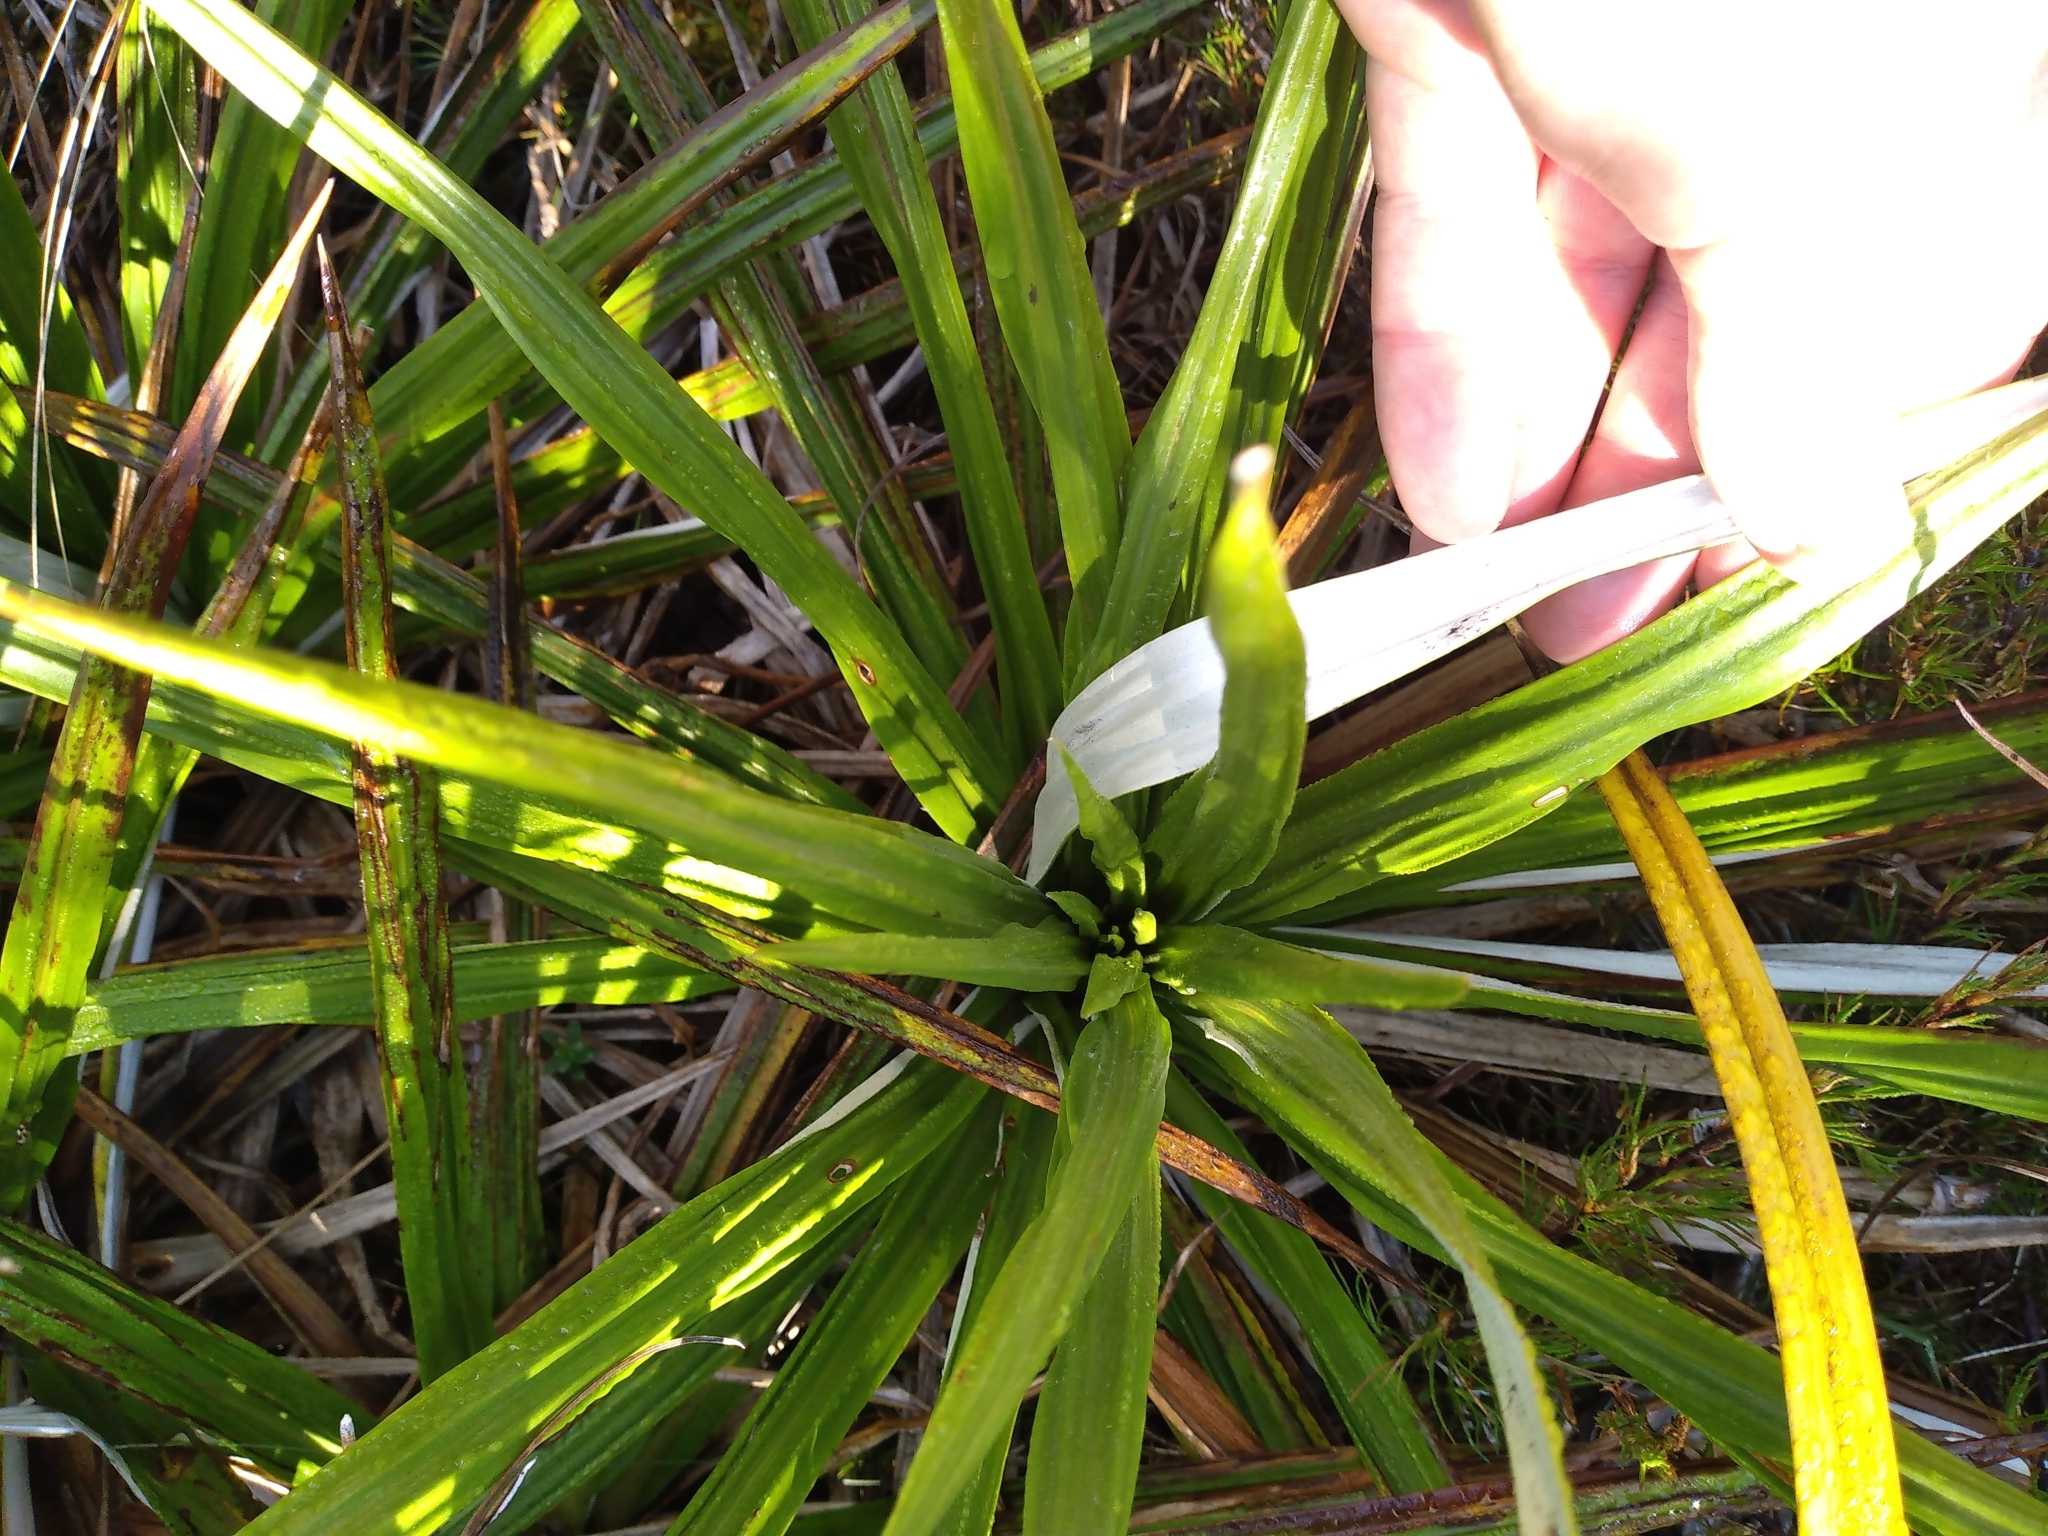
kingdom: Plantae
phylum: Tracheophyta
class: Magnoliopsida
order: Asterales
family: Asteraceae
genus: Celmisia
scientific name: Celmisia petriei
